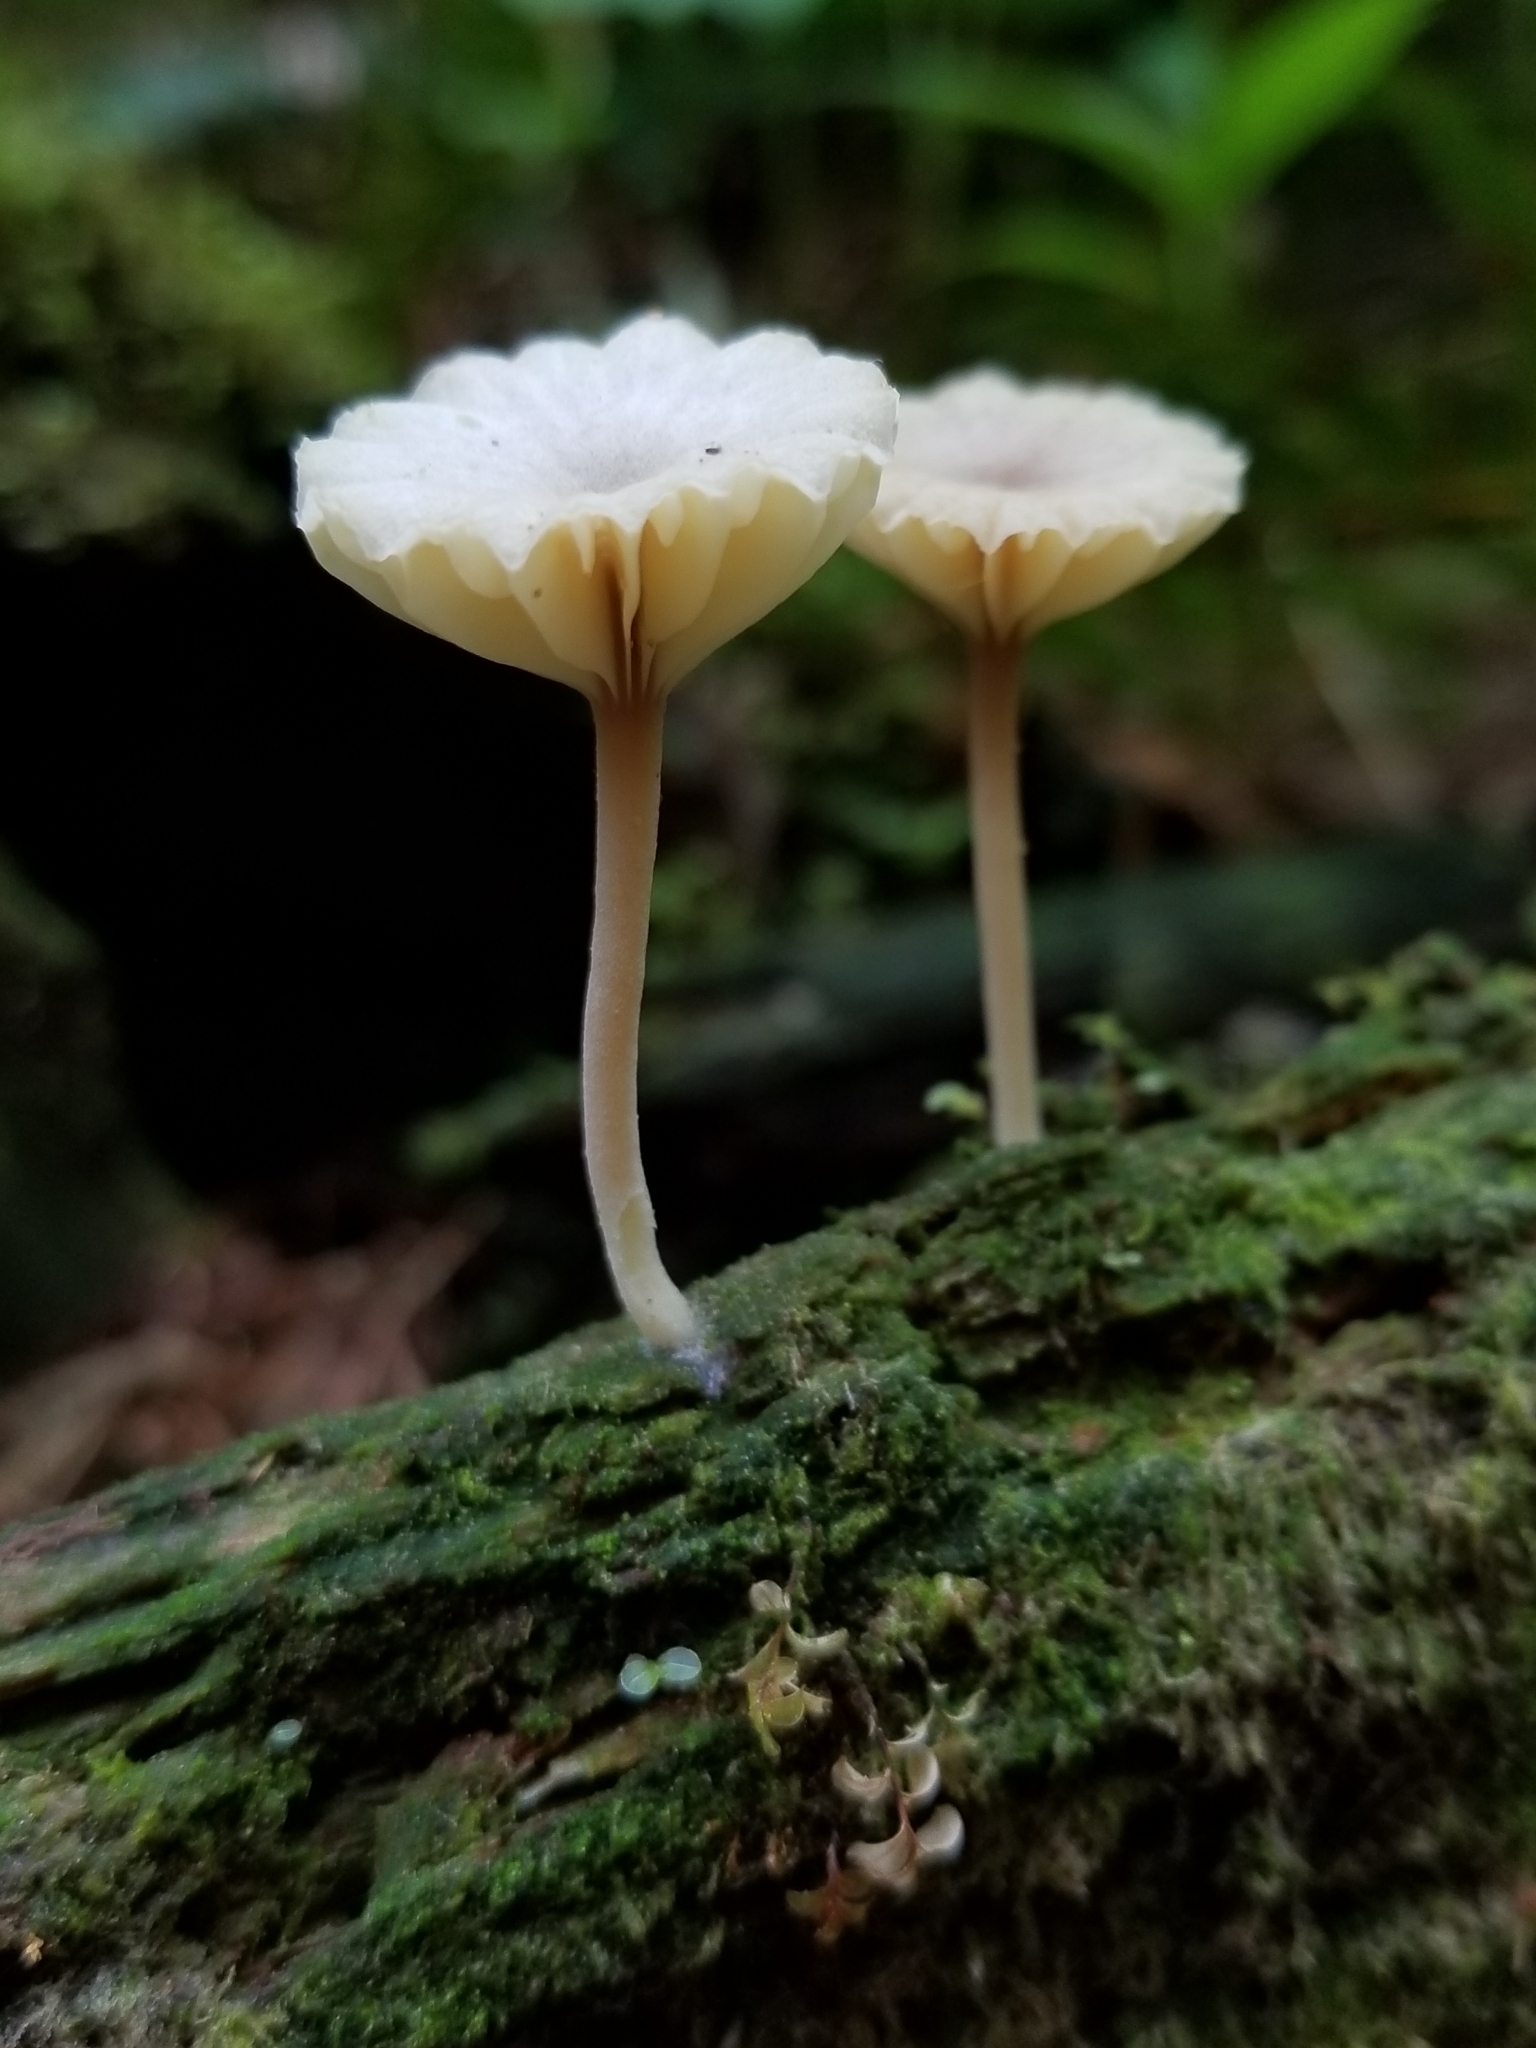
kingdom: Fungi
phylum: Basidiomycota
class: Agaricomycetes
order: Agaricales
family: Hygrophoraceae
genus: Lichenomphalia
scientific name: Lichenomphalia
